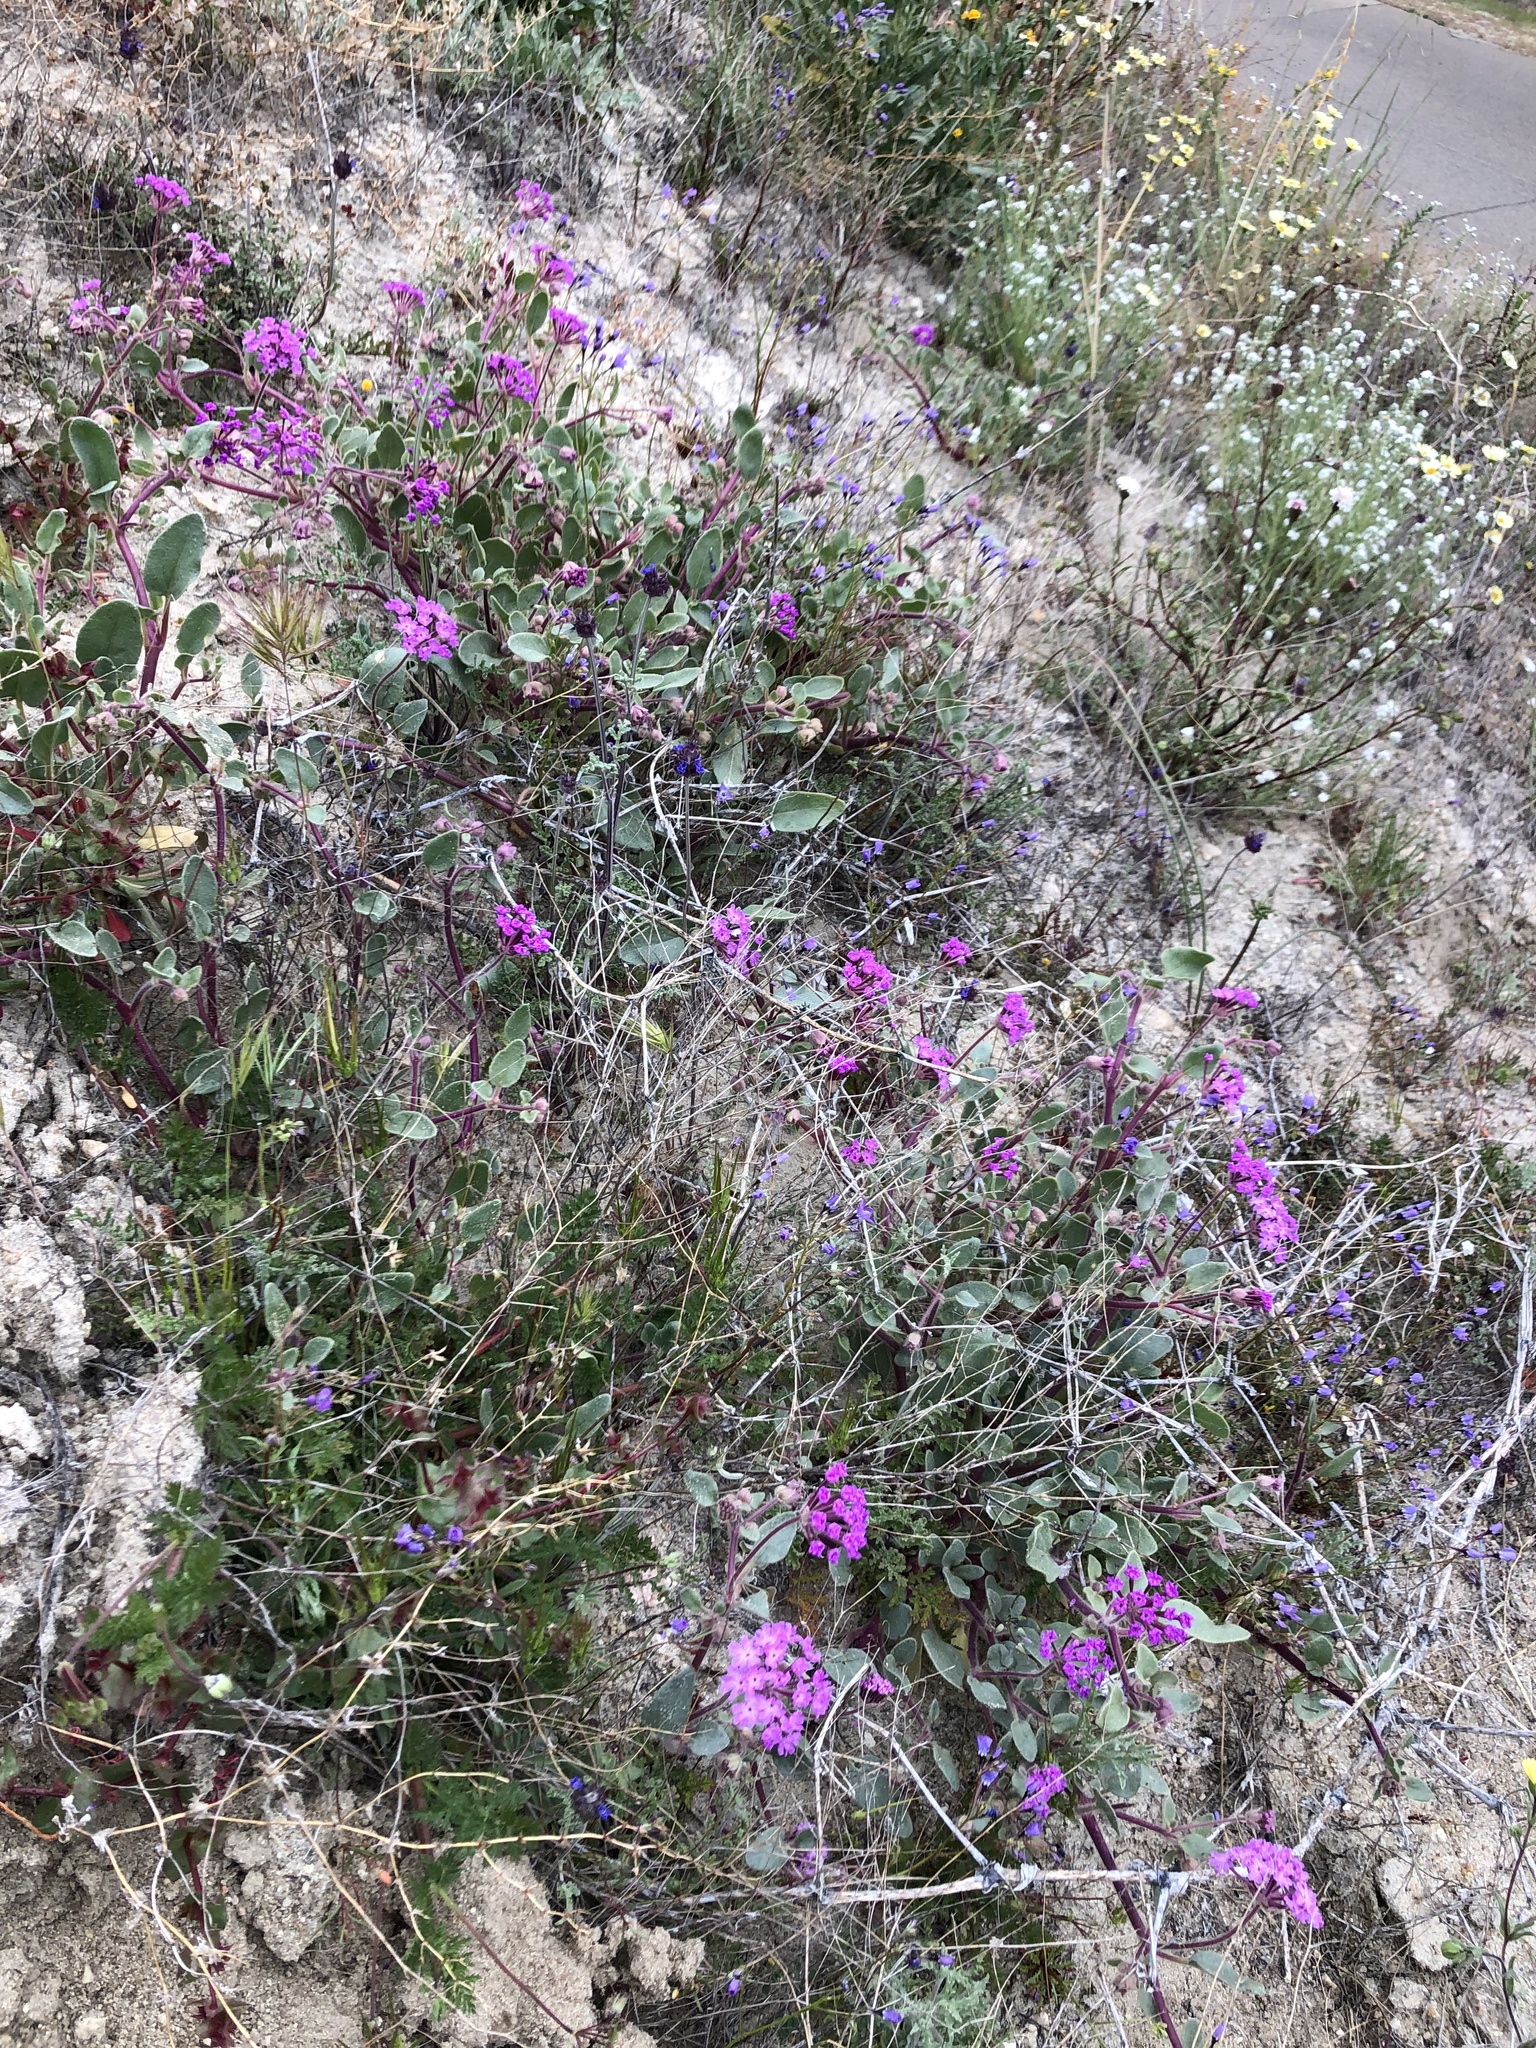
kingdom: Plantae
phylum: Tracheophyta
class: Magnoliopsida
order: Caryophyllales
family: Nyctaginaceae
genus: Abronia
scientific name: Abronia pogonantha
